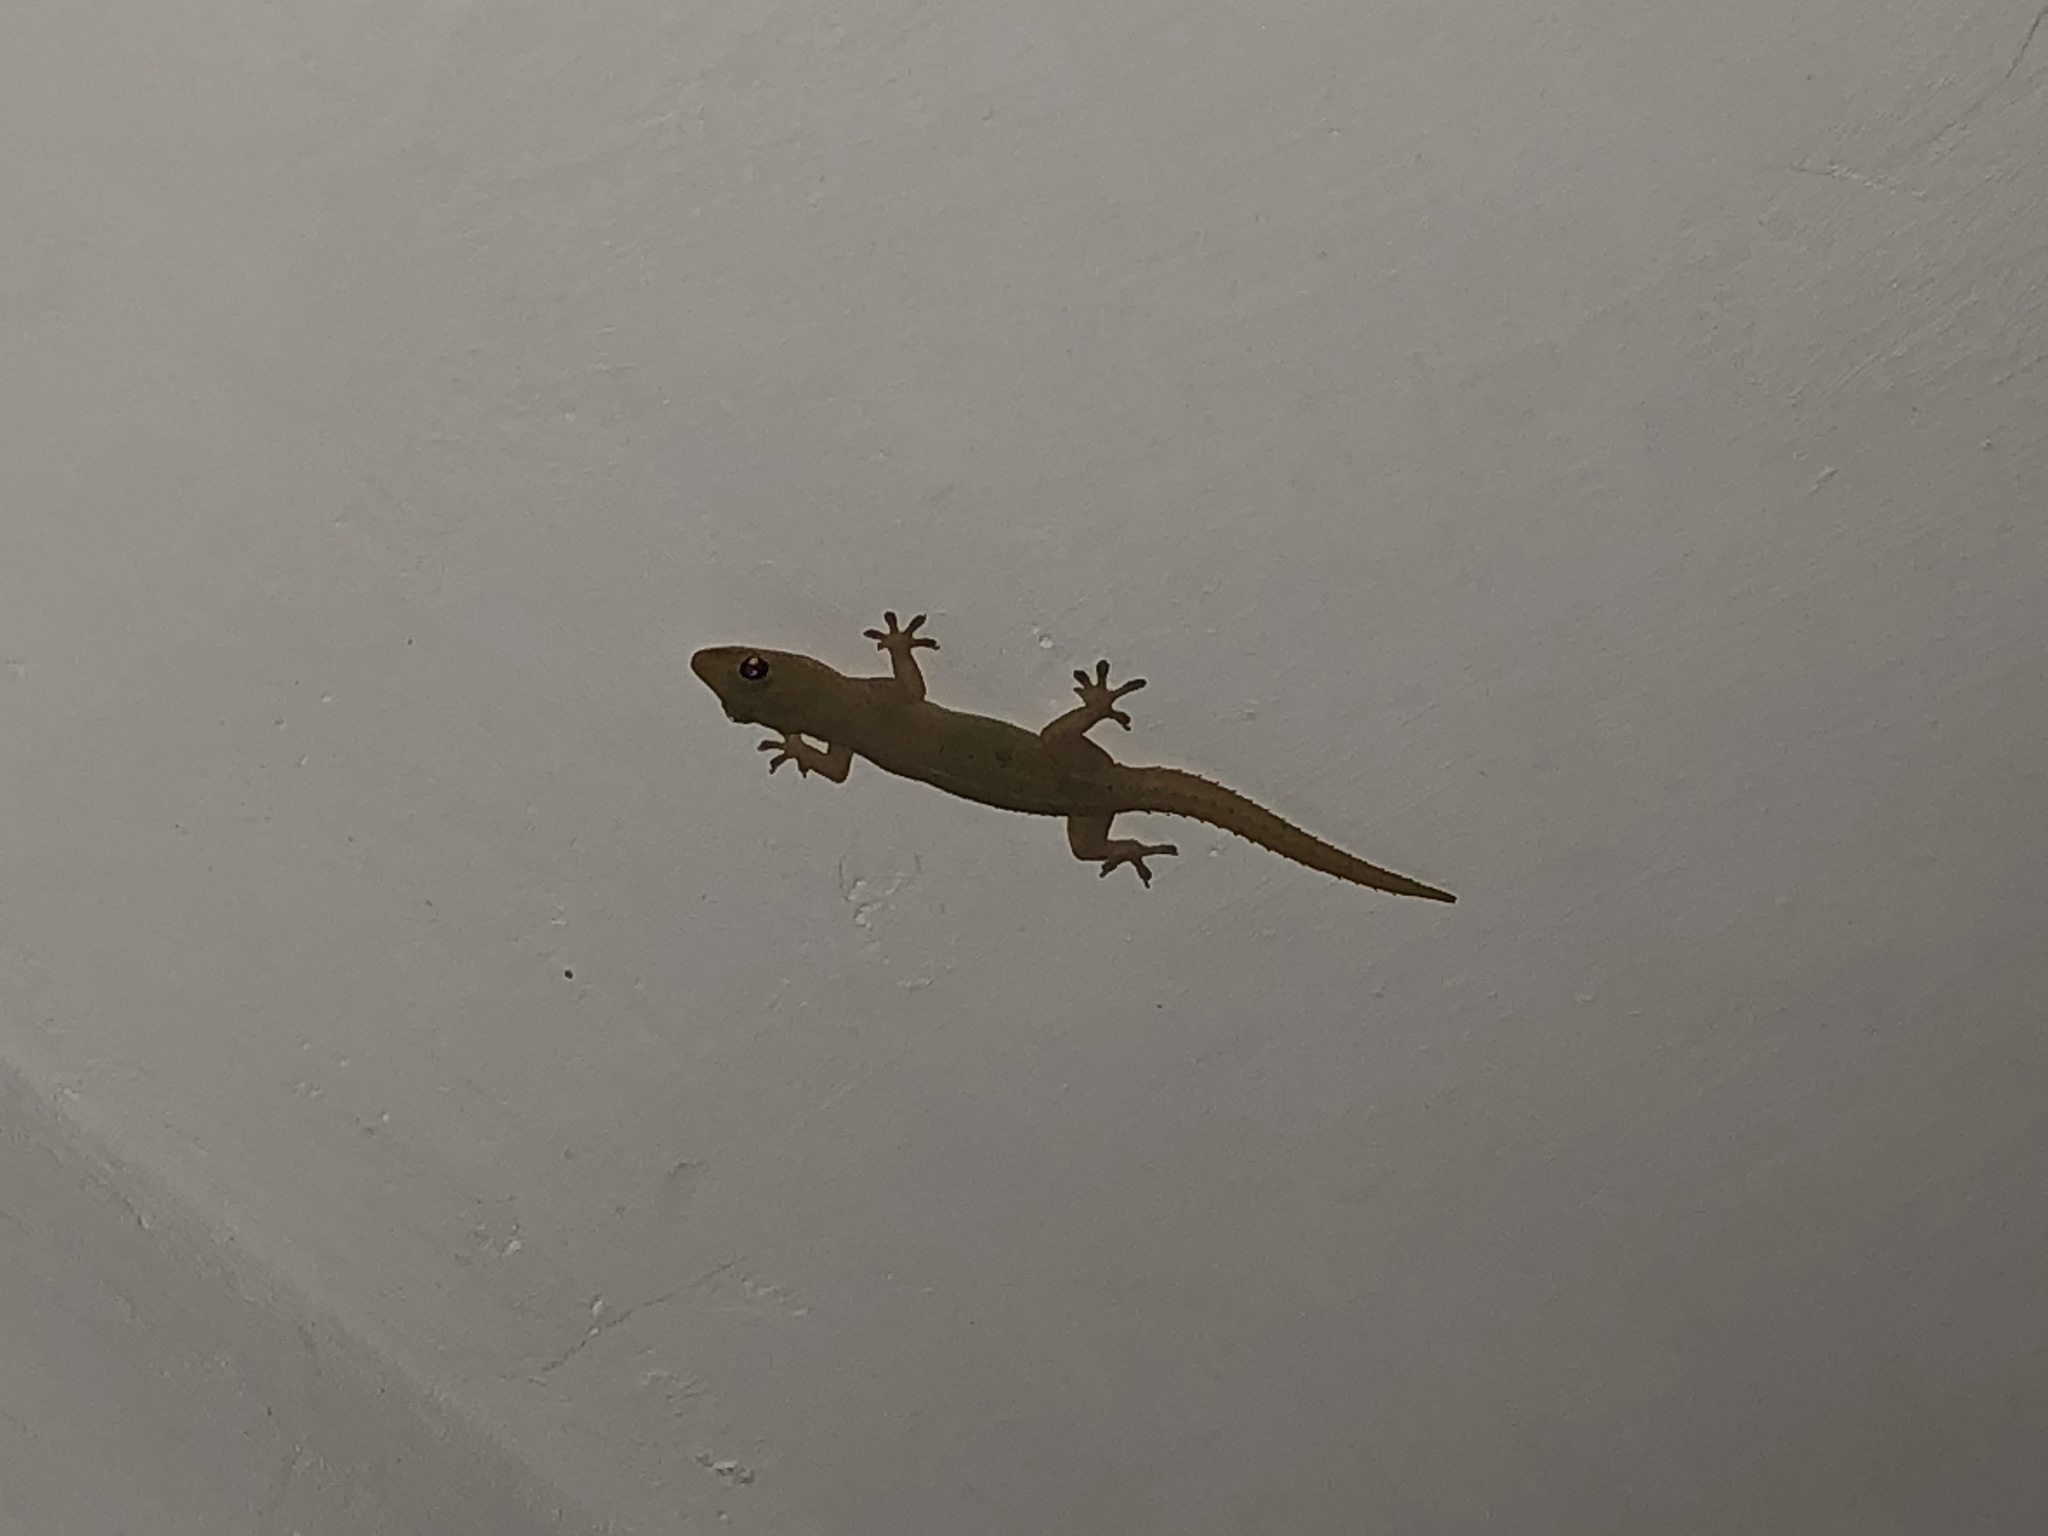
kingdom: Animalia
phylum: Chordata
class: Squamata
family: Gekkonidae
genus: Hemidactylus
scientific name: Hemidactylus frenatus
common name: Common house gecko
